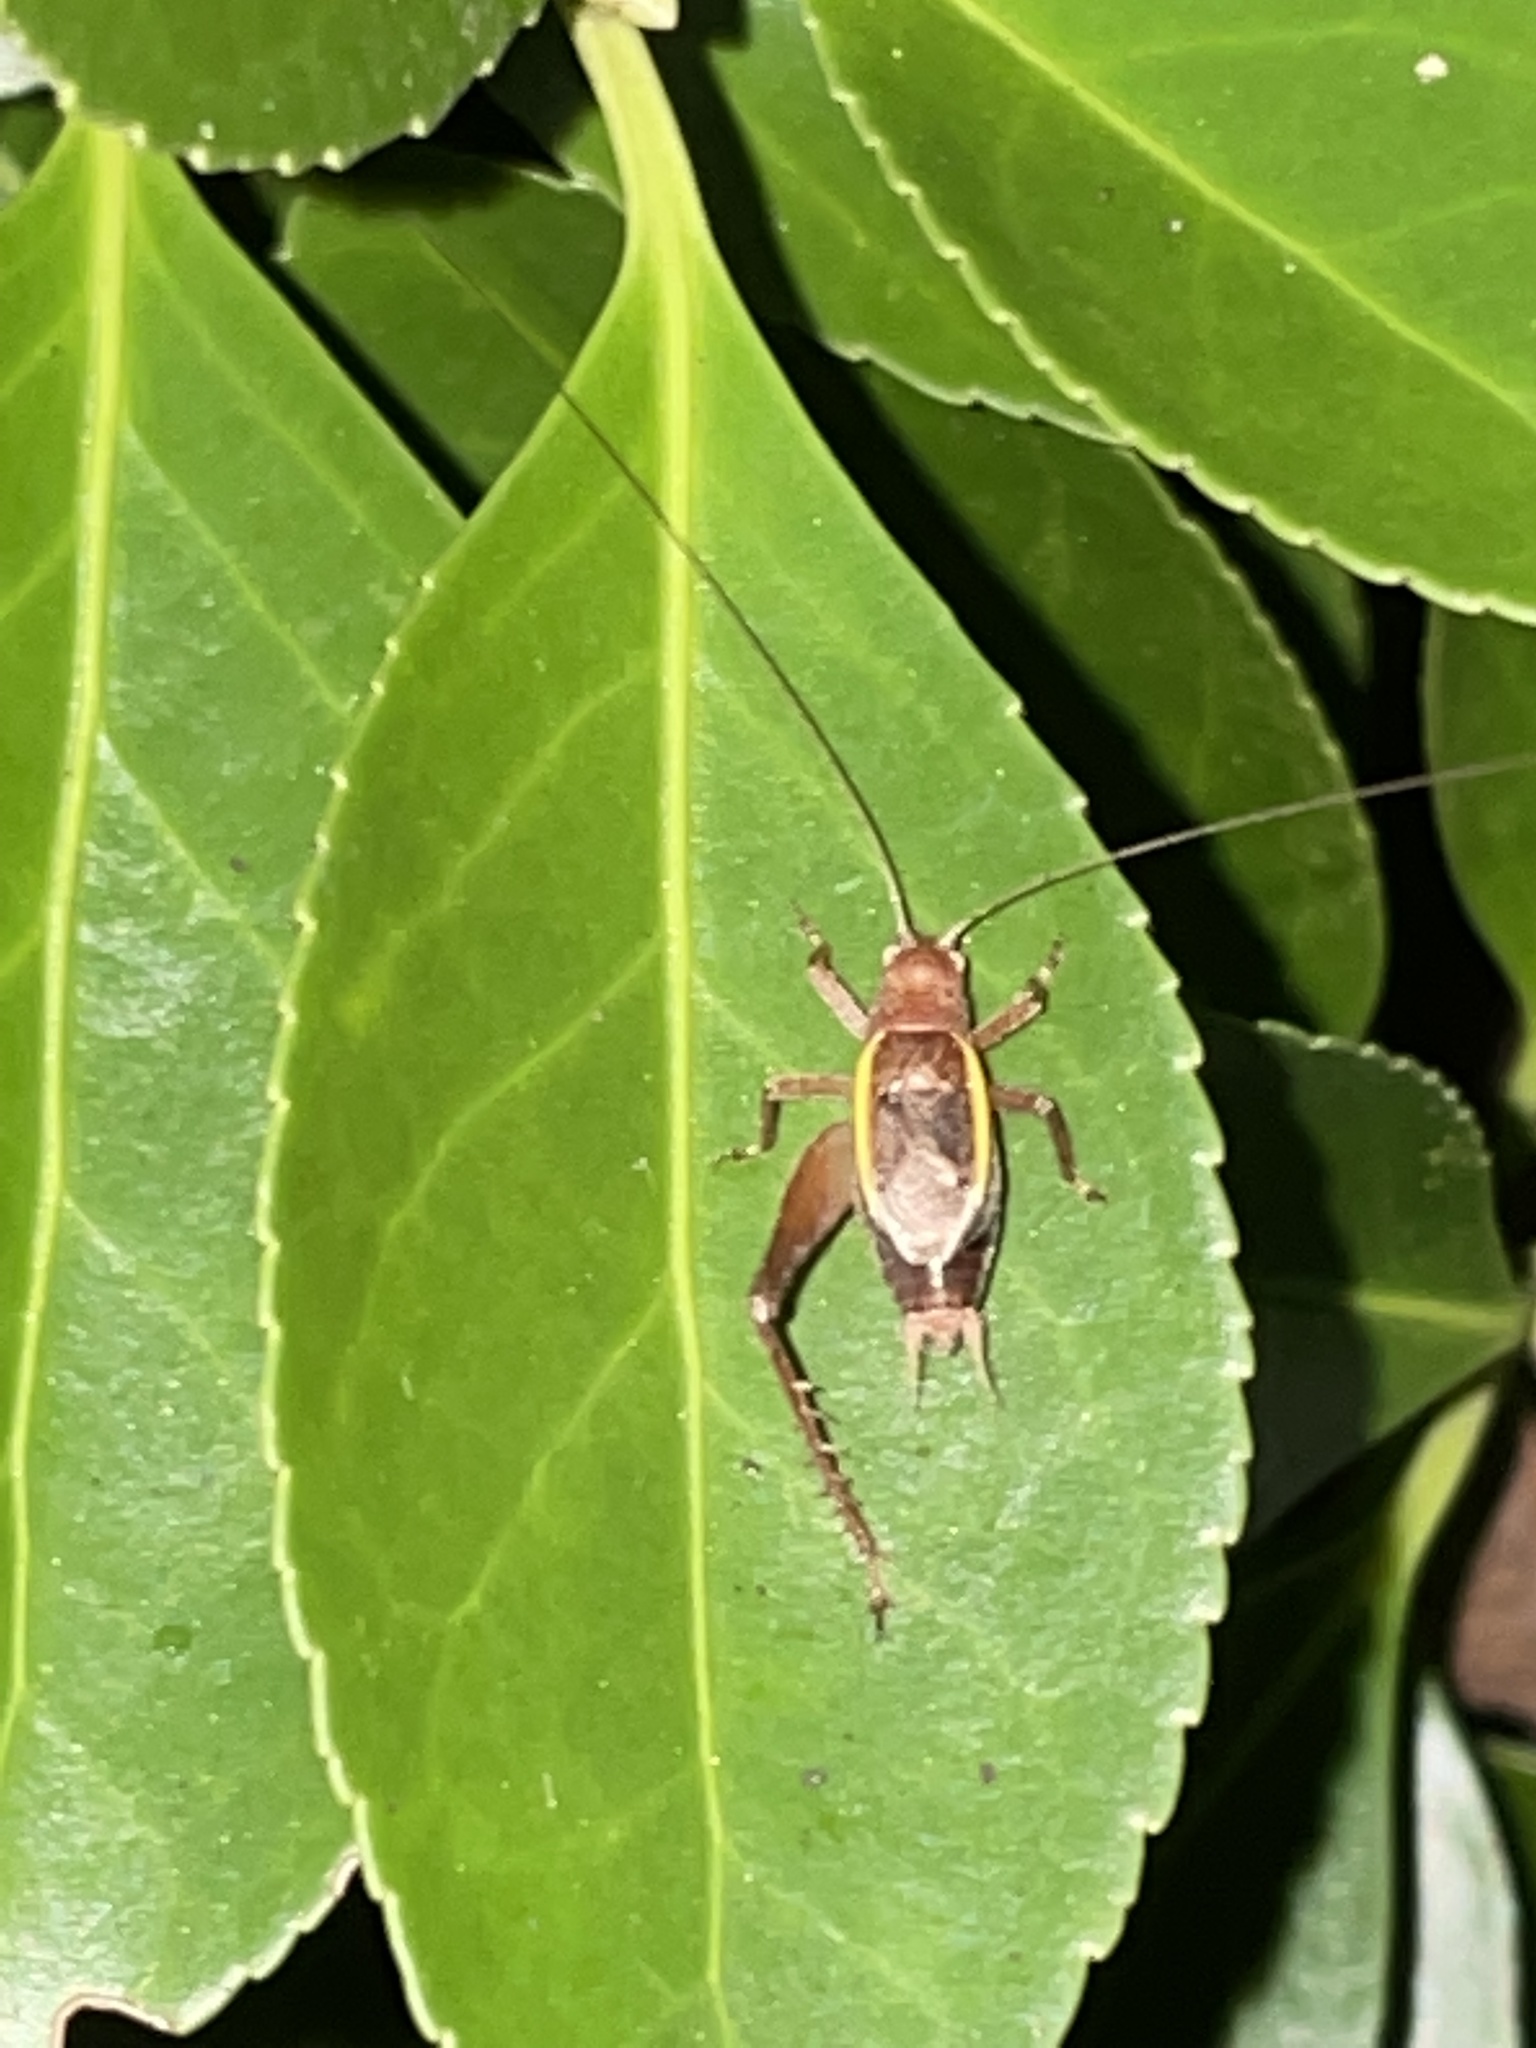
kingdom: Animalia
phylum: Arthropoda
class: Insecta
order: Orthoptera
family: Gryllidae
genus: Hapithus
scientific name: Hapithus agitator
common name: Restless bush cricket
